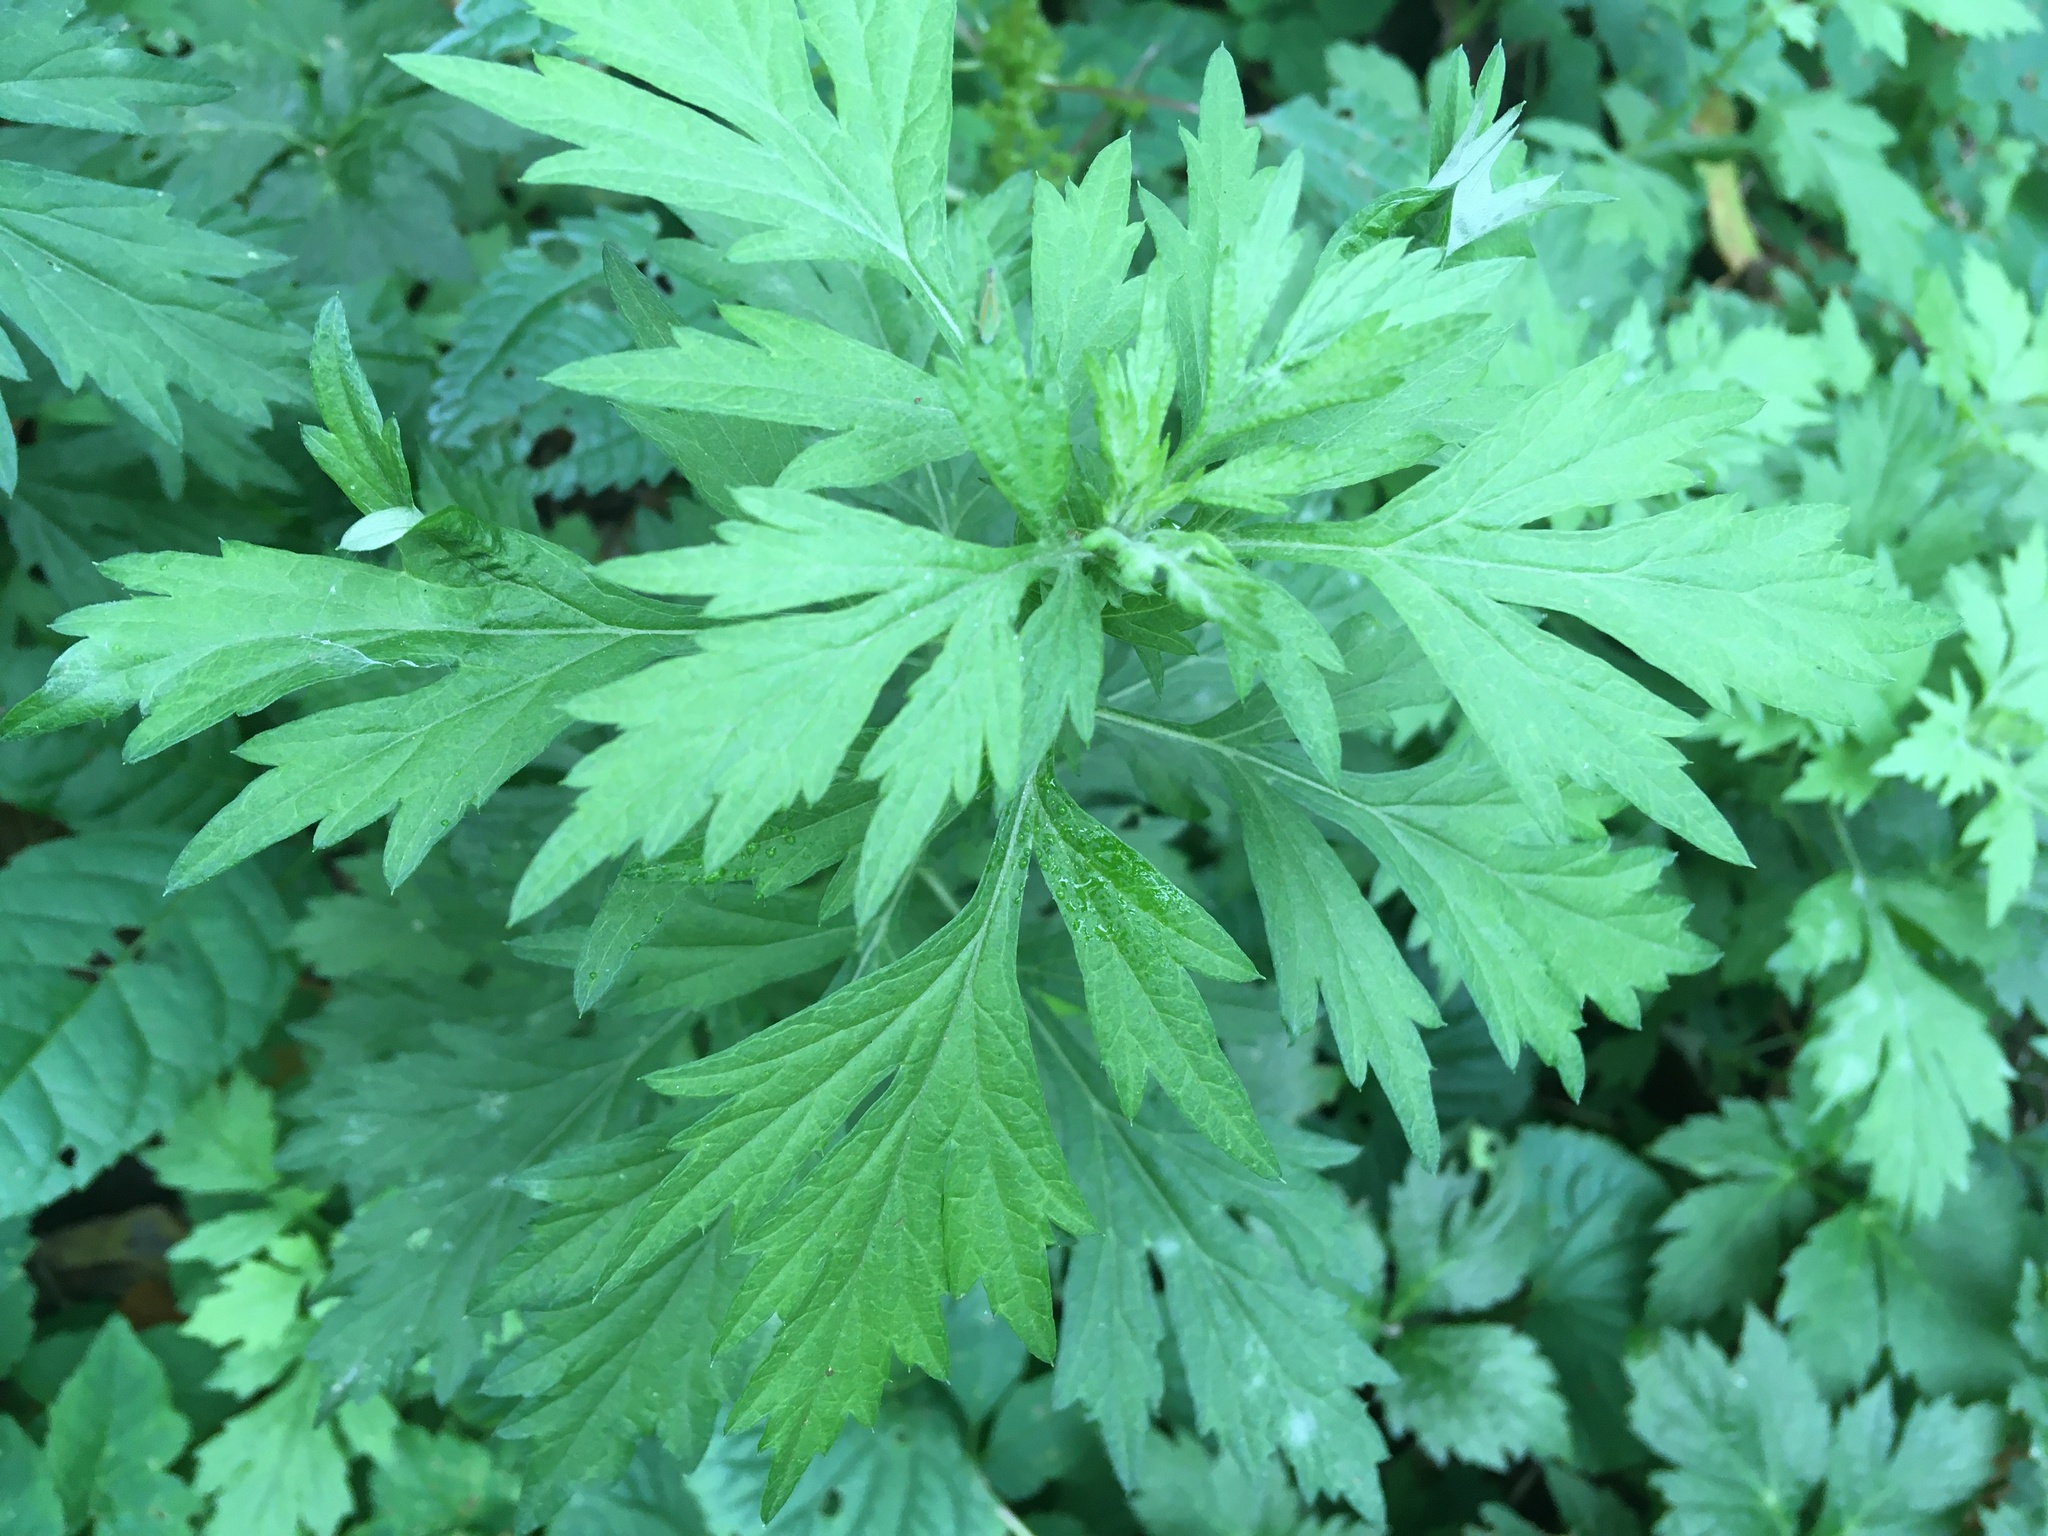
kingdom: Plantae
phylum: Tracheophyta
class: Magnoliopsida
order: Asterales
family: Asteraceae
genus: Artemisia
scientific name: Artemisia vulgaris
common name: Mugwort
